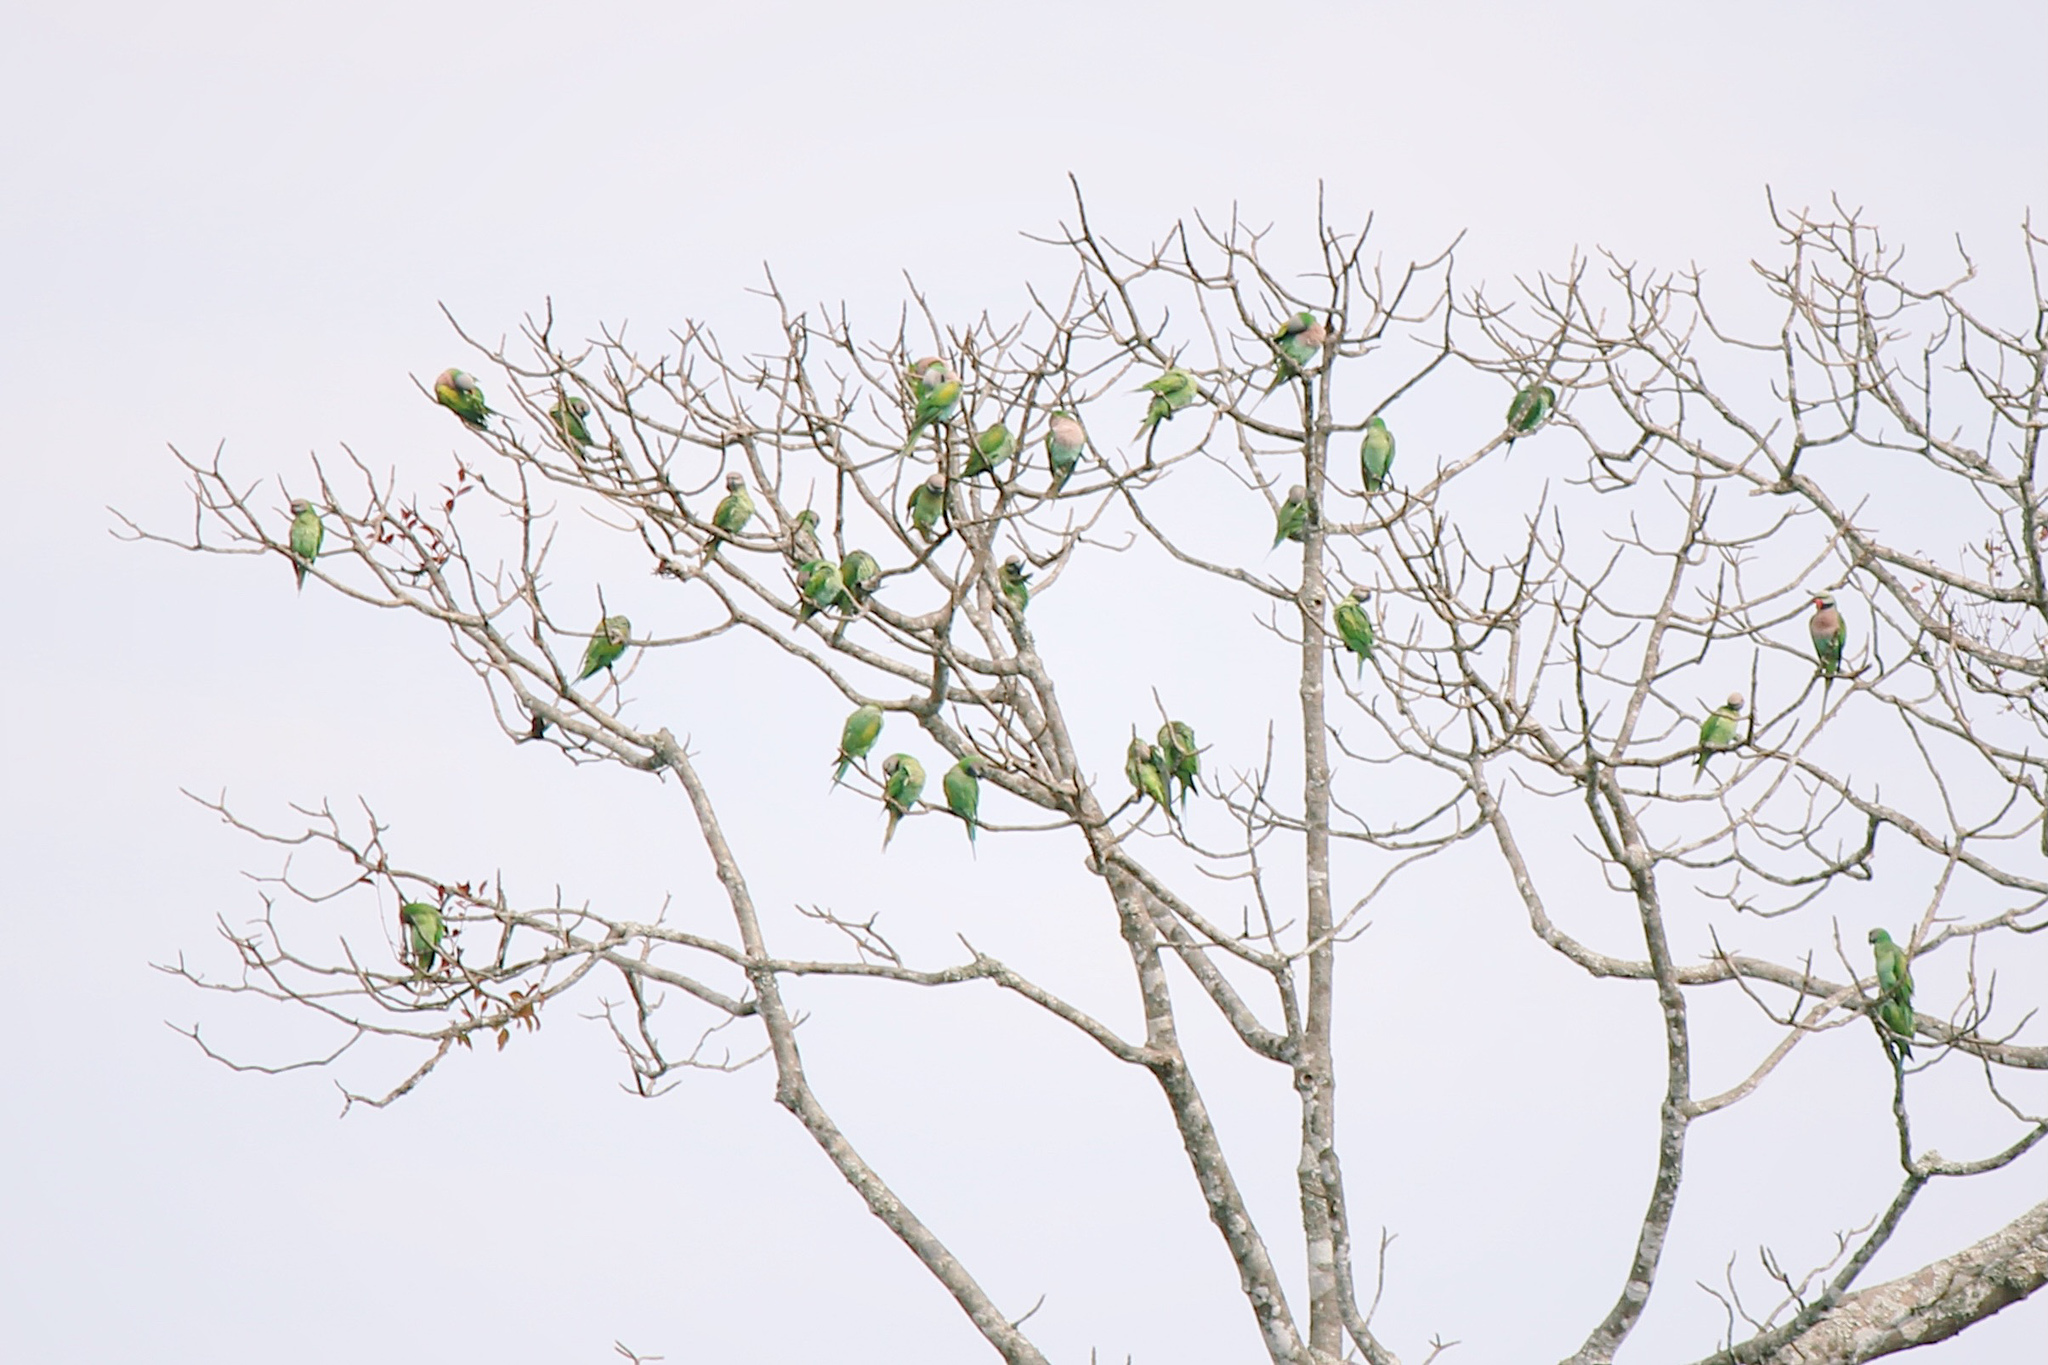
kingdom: Animalia
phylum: Chordata
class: Aves
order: Psittaciformes
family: Psittacidae
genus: Psittacula
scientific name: Psittacula alexandri
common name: Red-breasted parakeet
